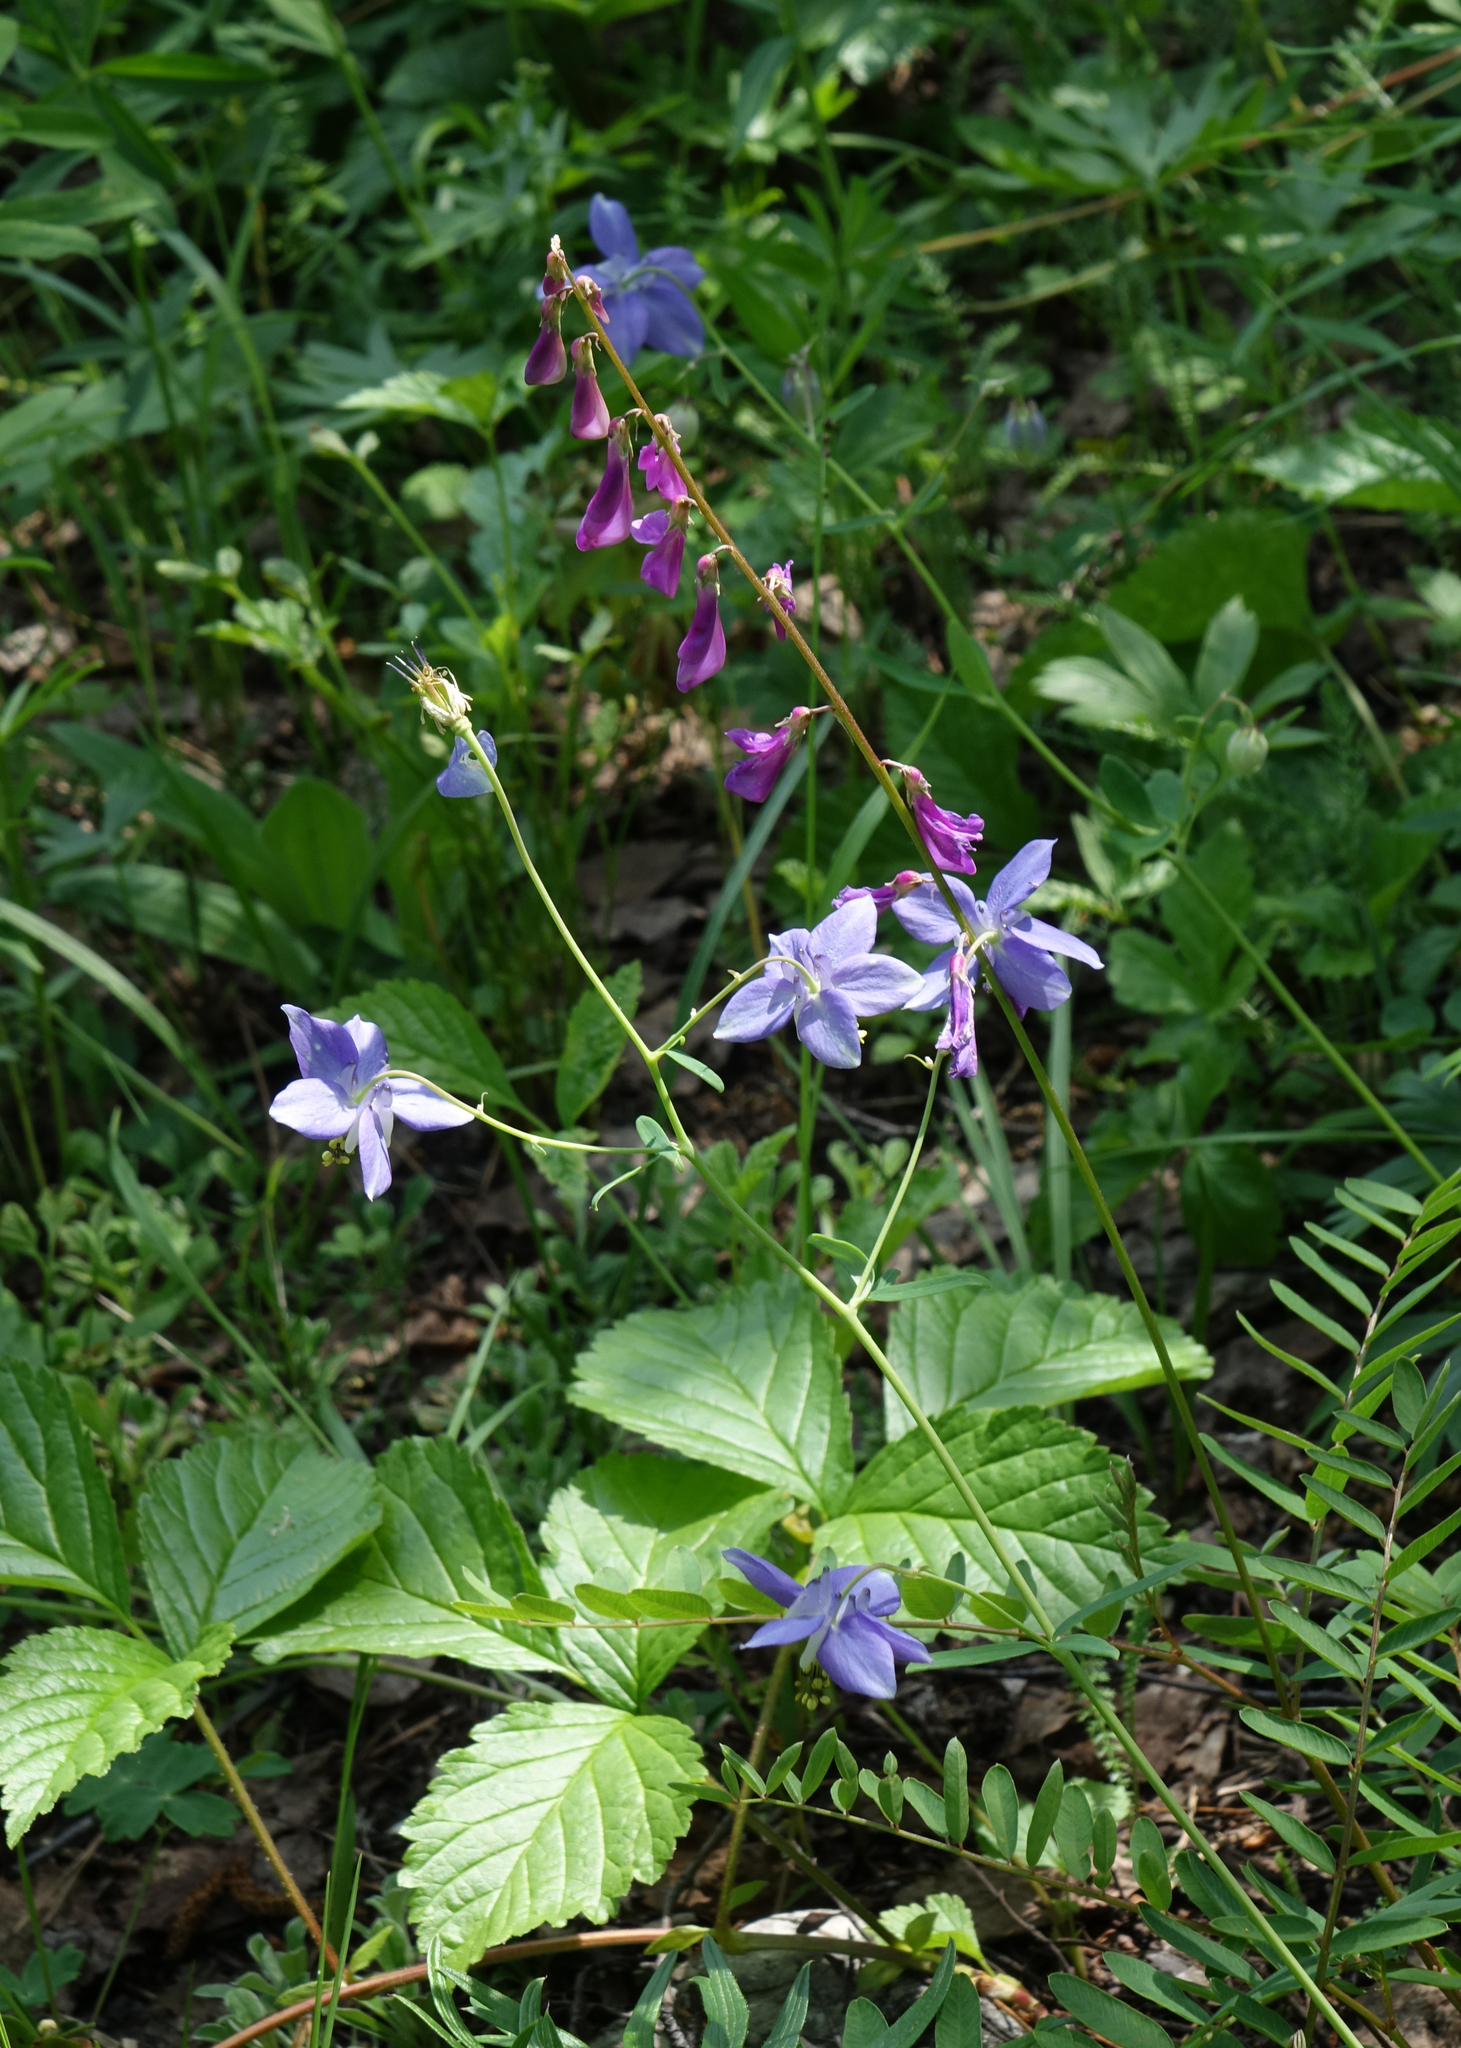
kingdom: Plantae
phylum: Tracheophyta
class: Magnoliopsida
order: Ranunculales
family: Ranunculaceae
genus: Aquilegia
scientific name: Aquilegia parviflora
